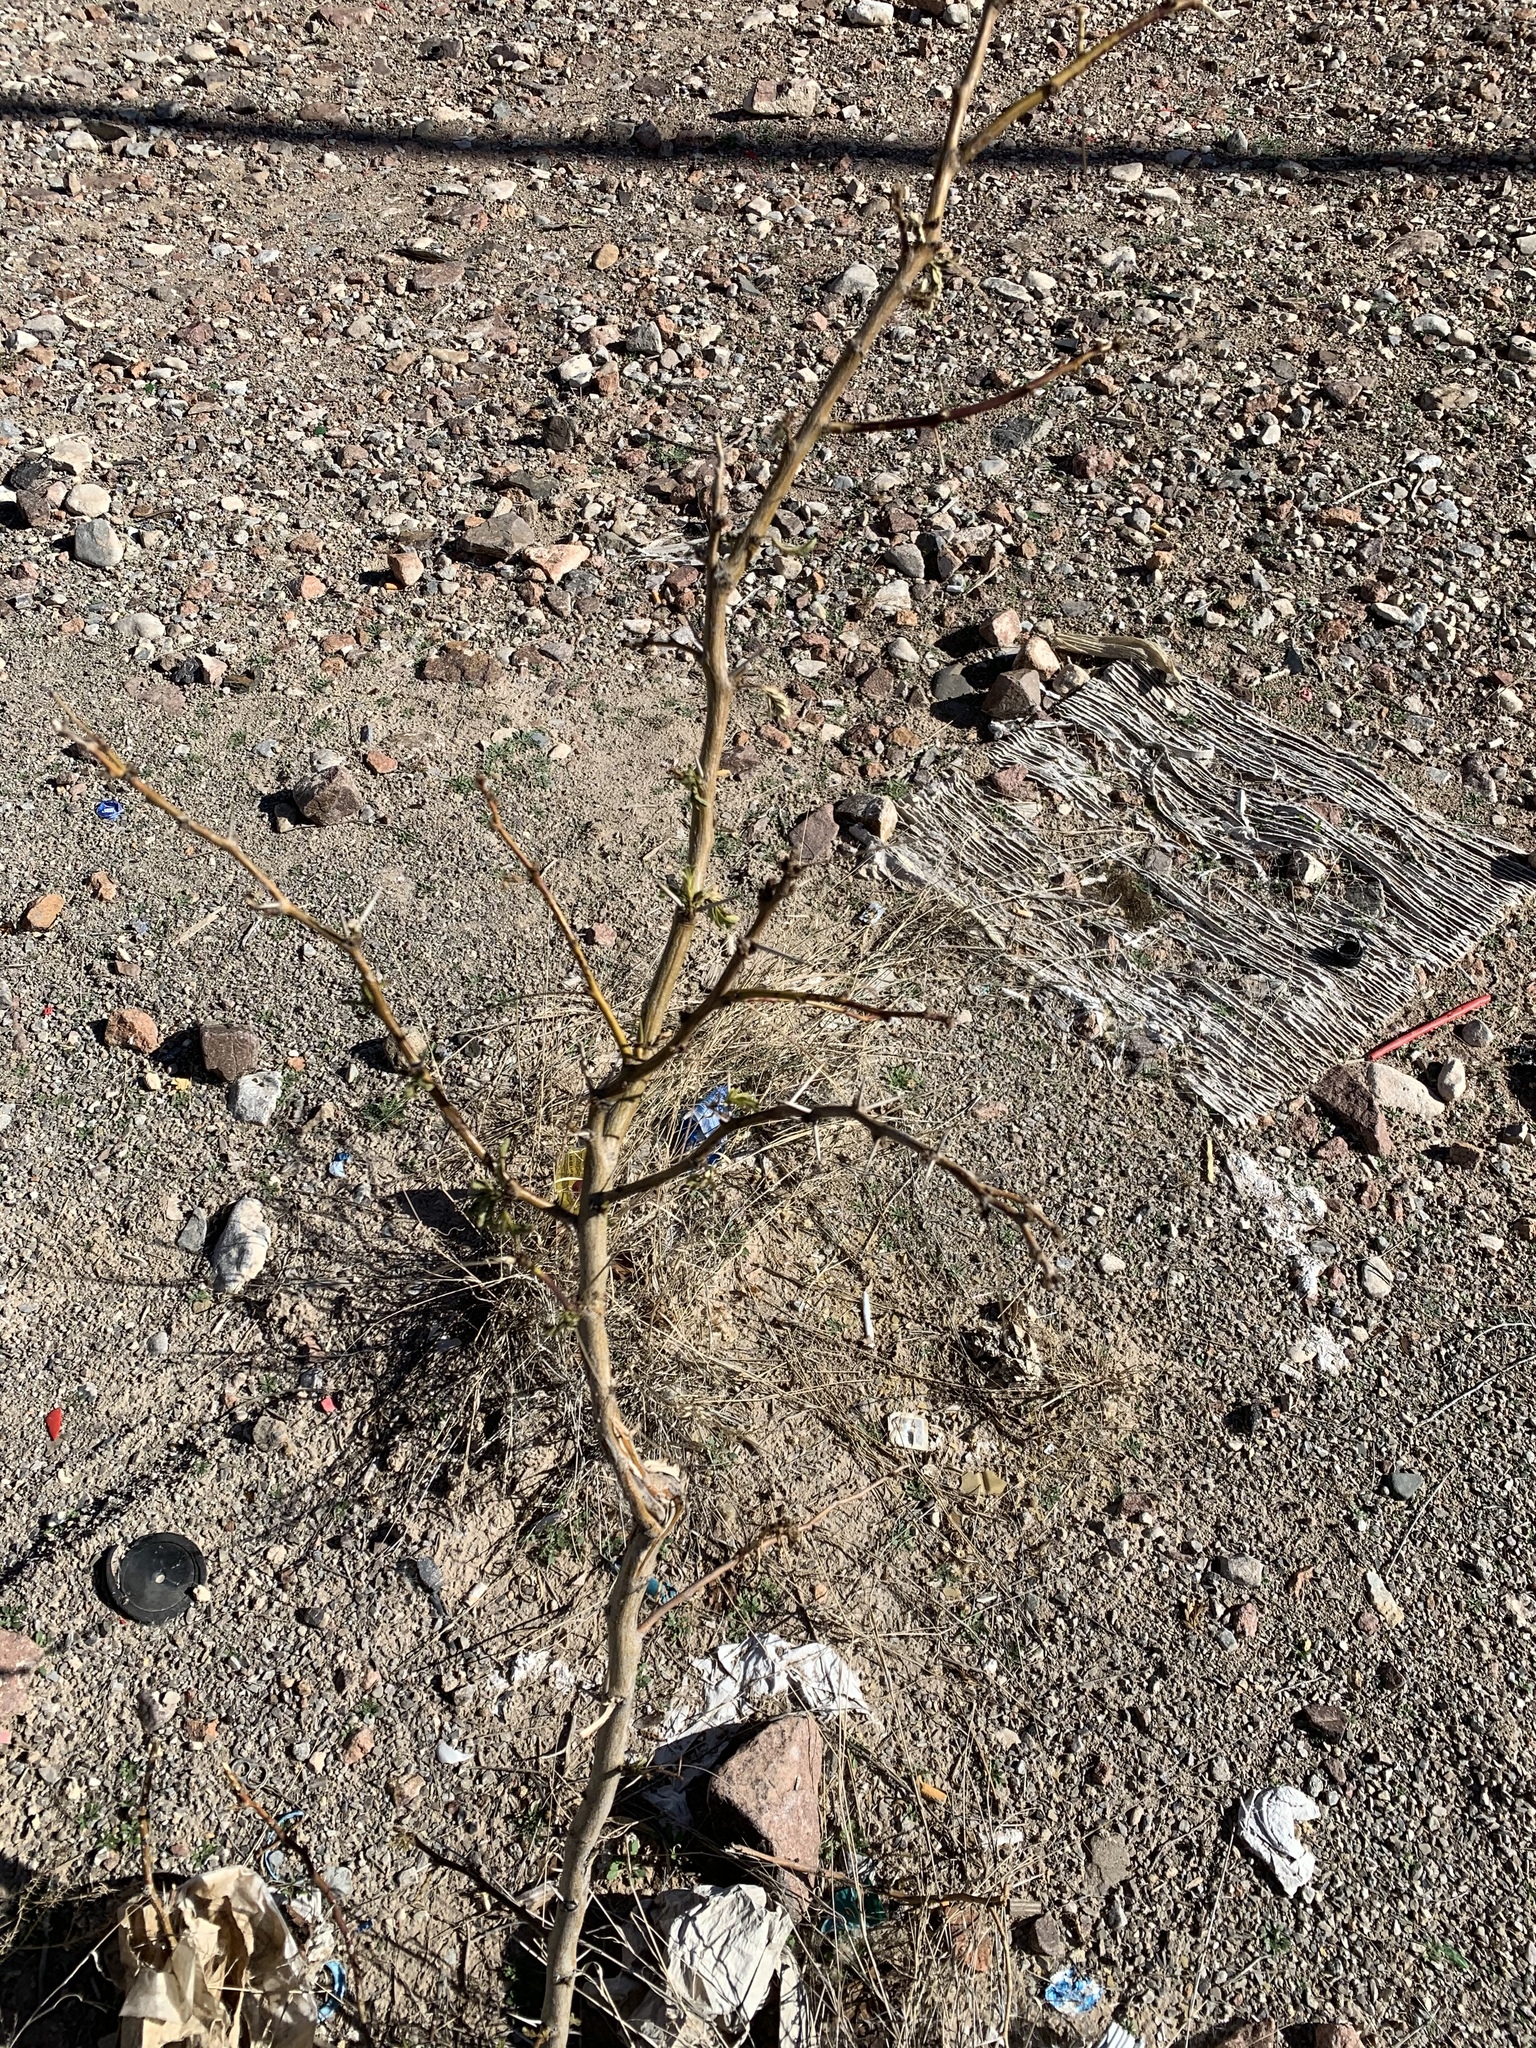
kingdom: Plantae
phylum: Tracheophyta
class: Magnoliopsida
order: Fabales
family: Fabaceae
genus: Prosopis
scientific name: Prosopis glandulosa
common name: Honey mesquite
